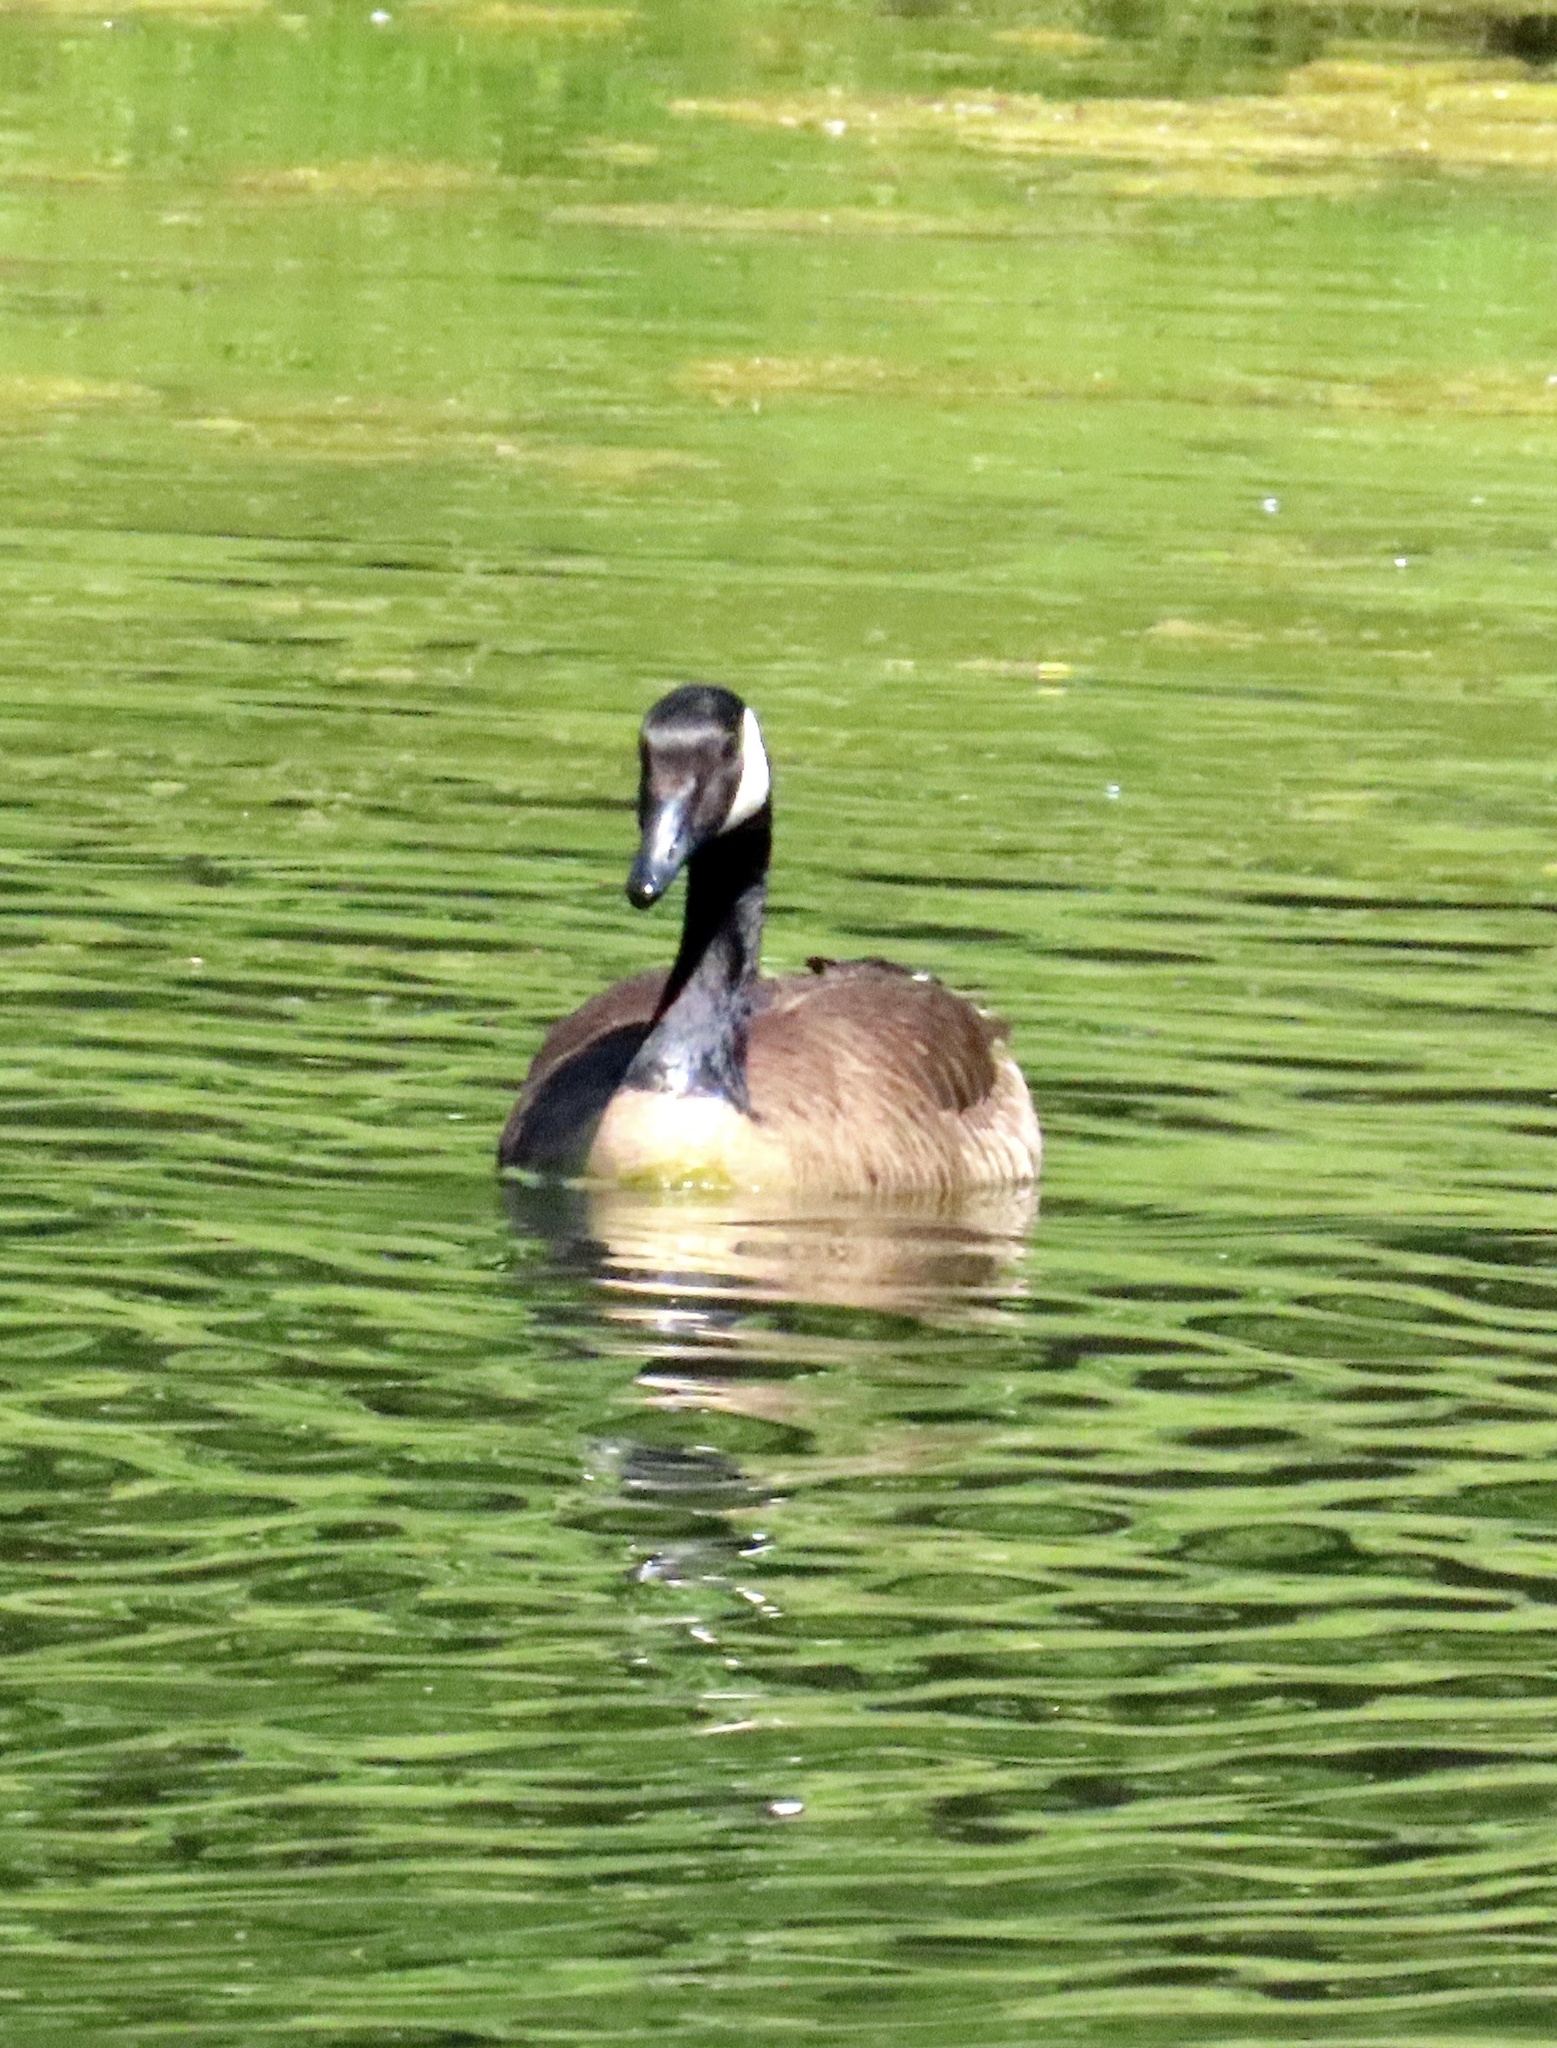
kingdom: Animalia
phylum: Chordata
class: Aves
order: Anseriformes
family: Anatidae
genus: Branta
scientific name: Branta canadensis
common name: Canada goose
